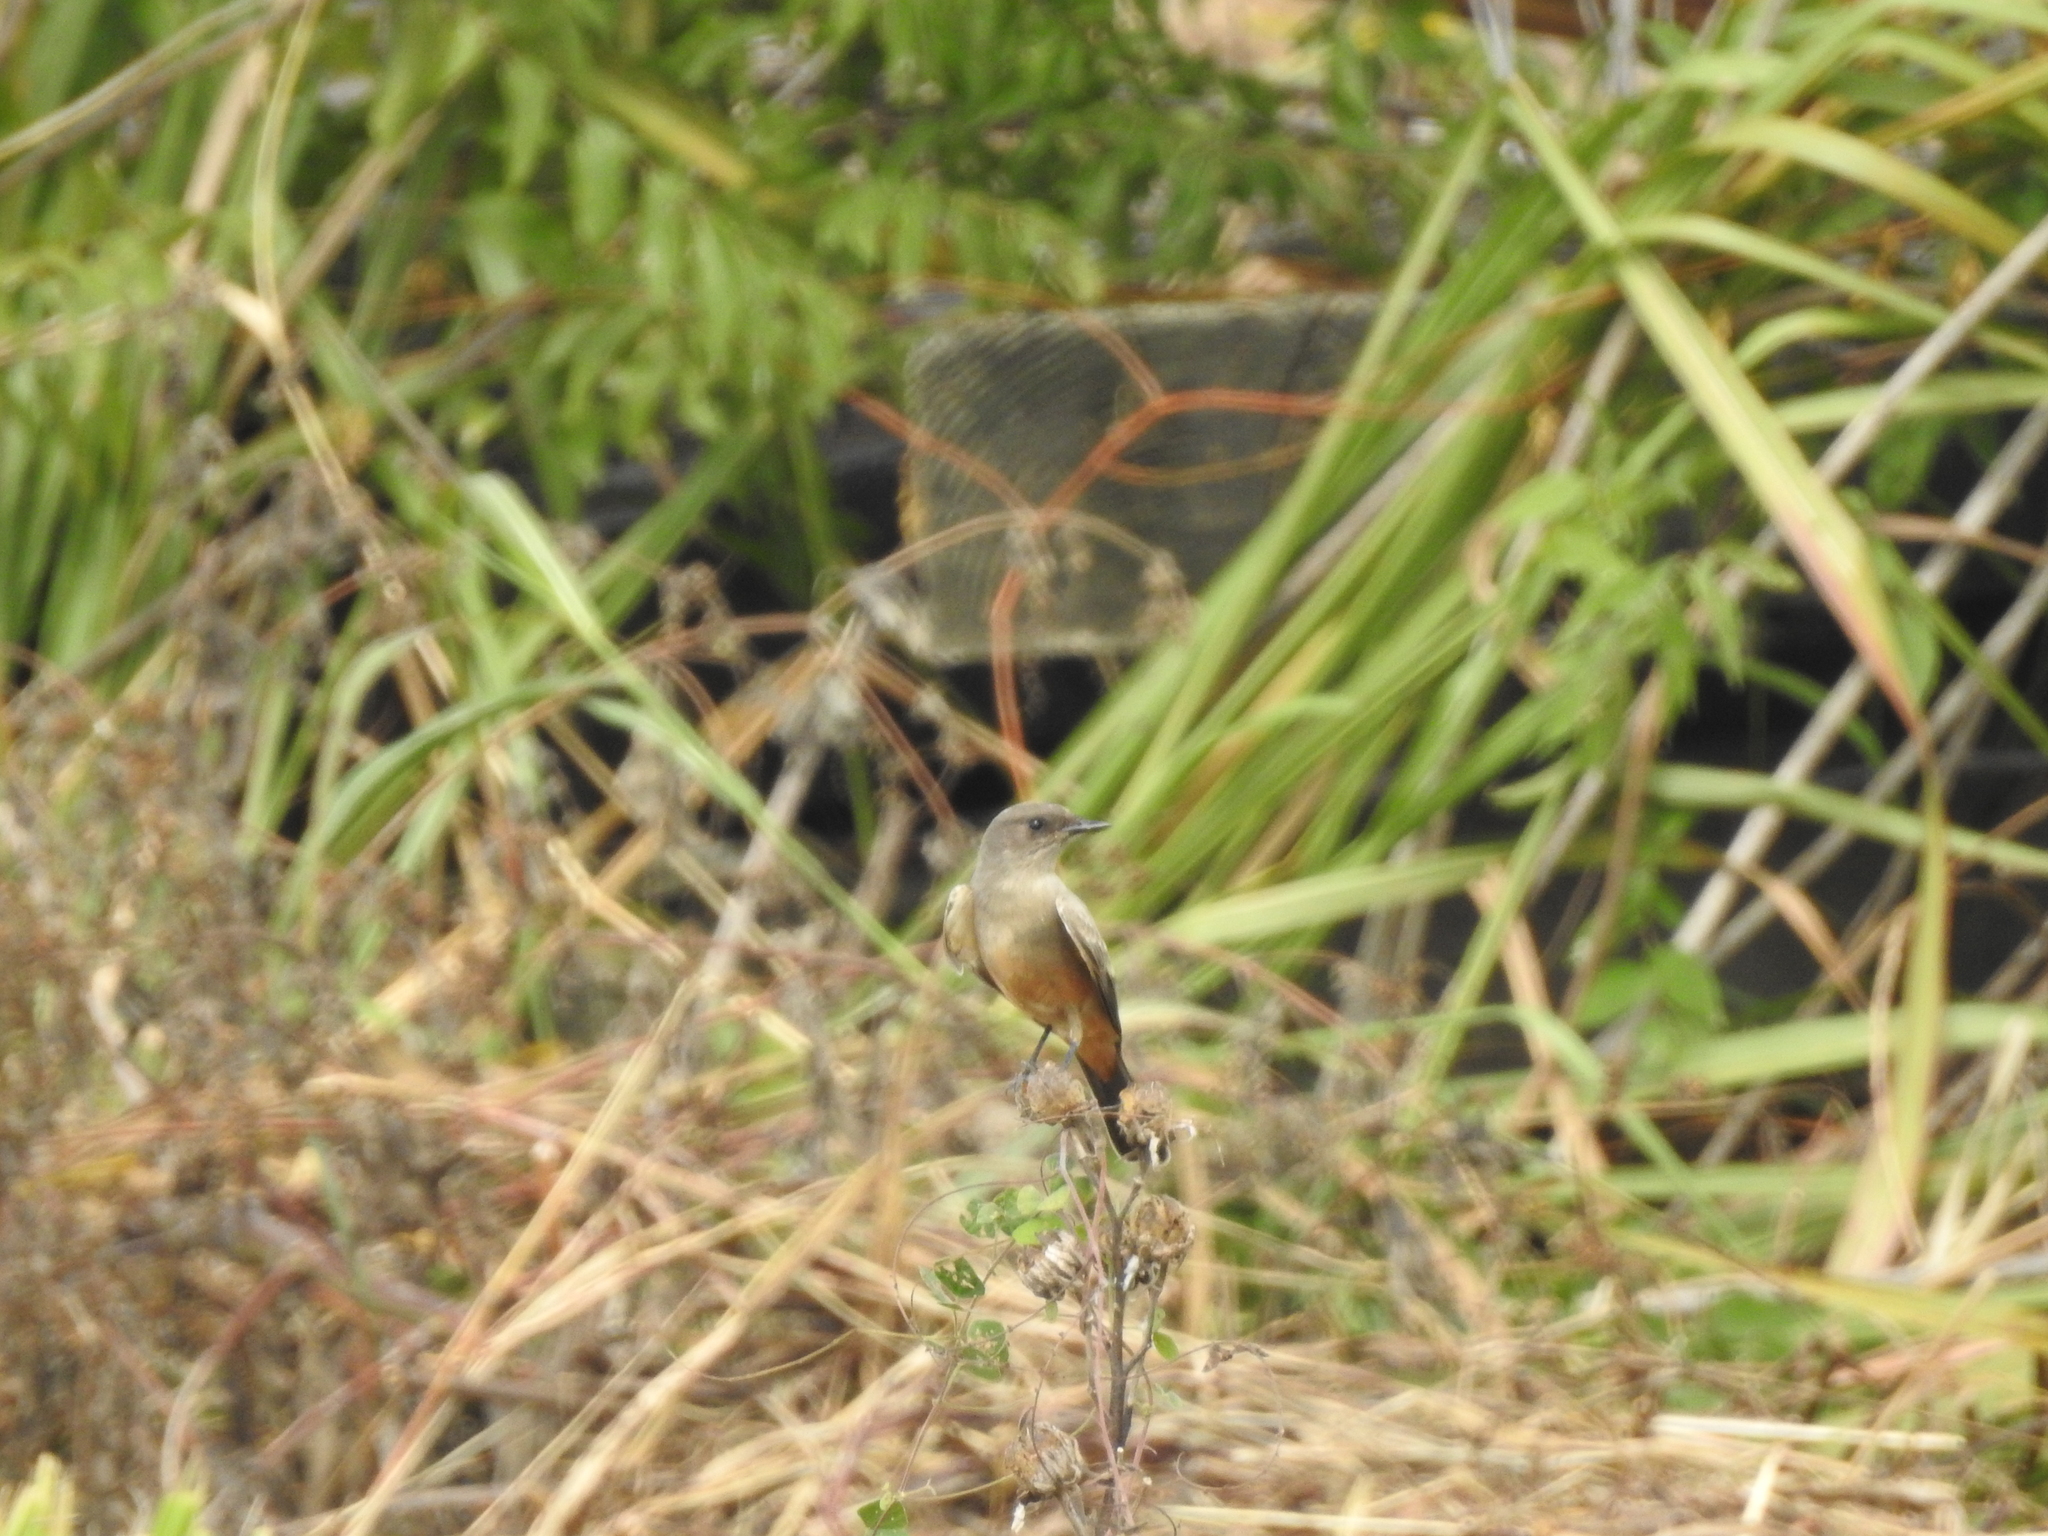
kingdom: Animalia
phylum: Chordata
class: Aves
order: Passeriformes
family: Tyrannidae
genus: Sayornis
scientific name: Sayornis saya
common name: Say's phoebe
